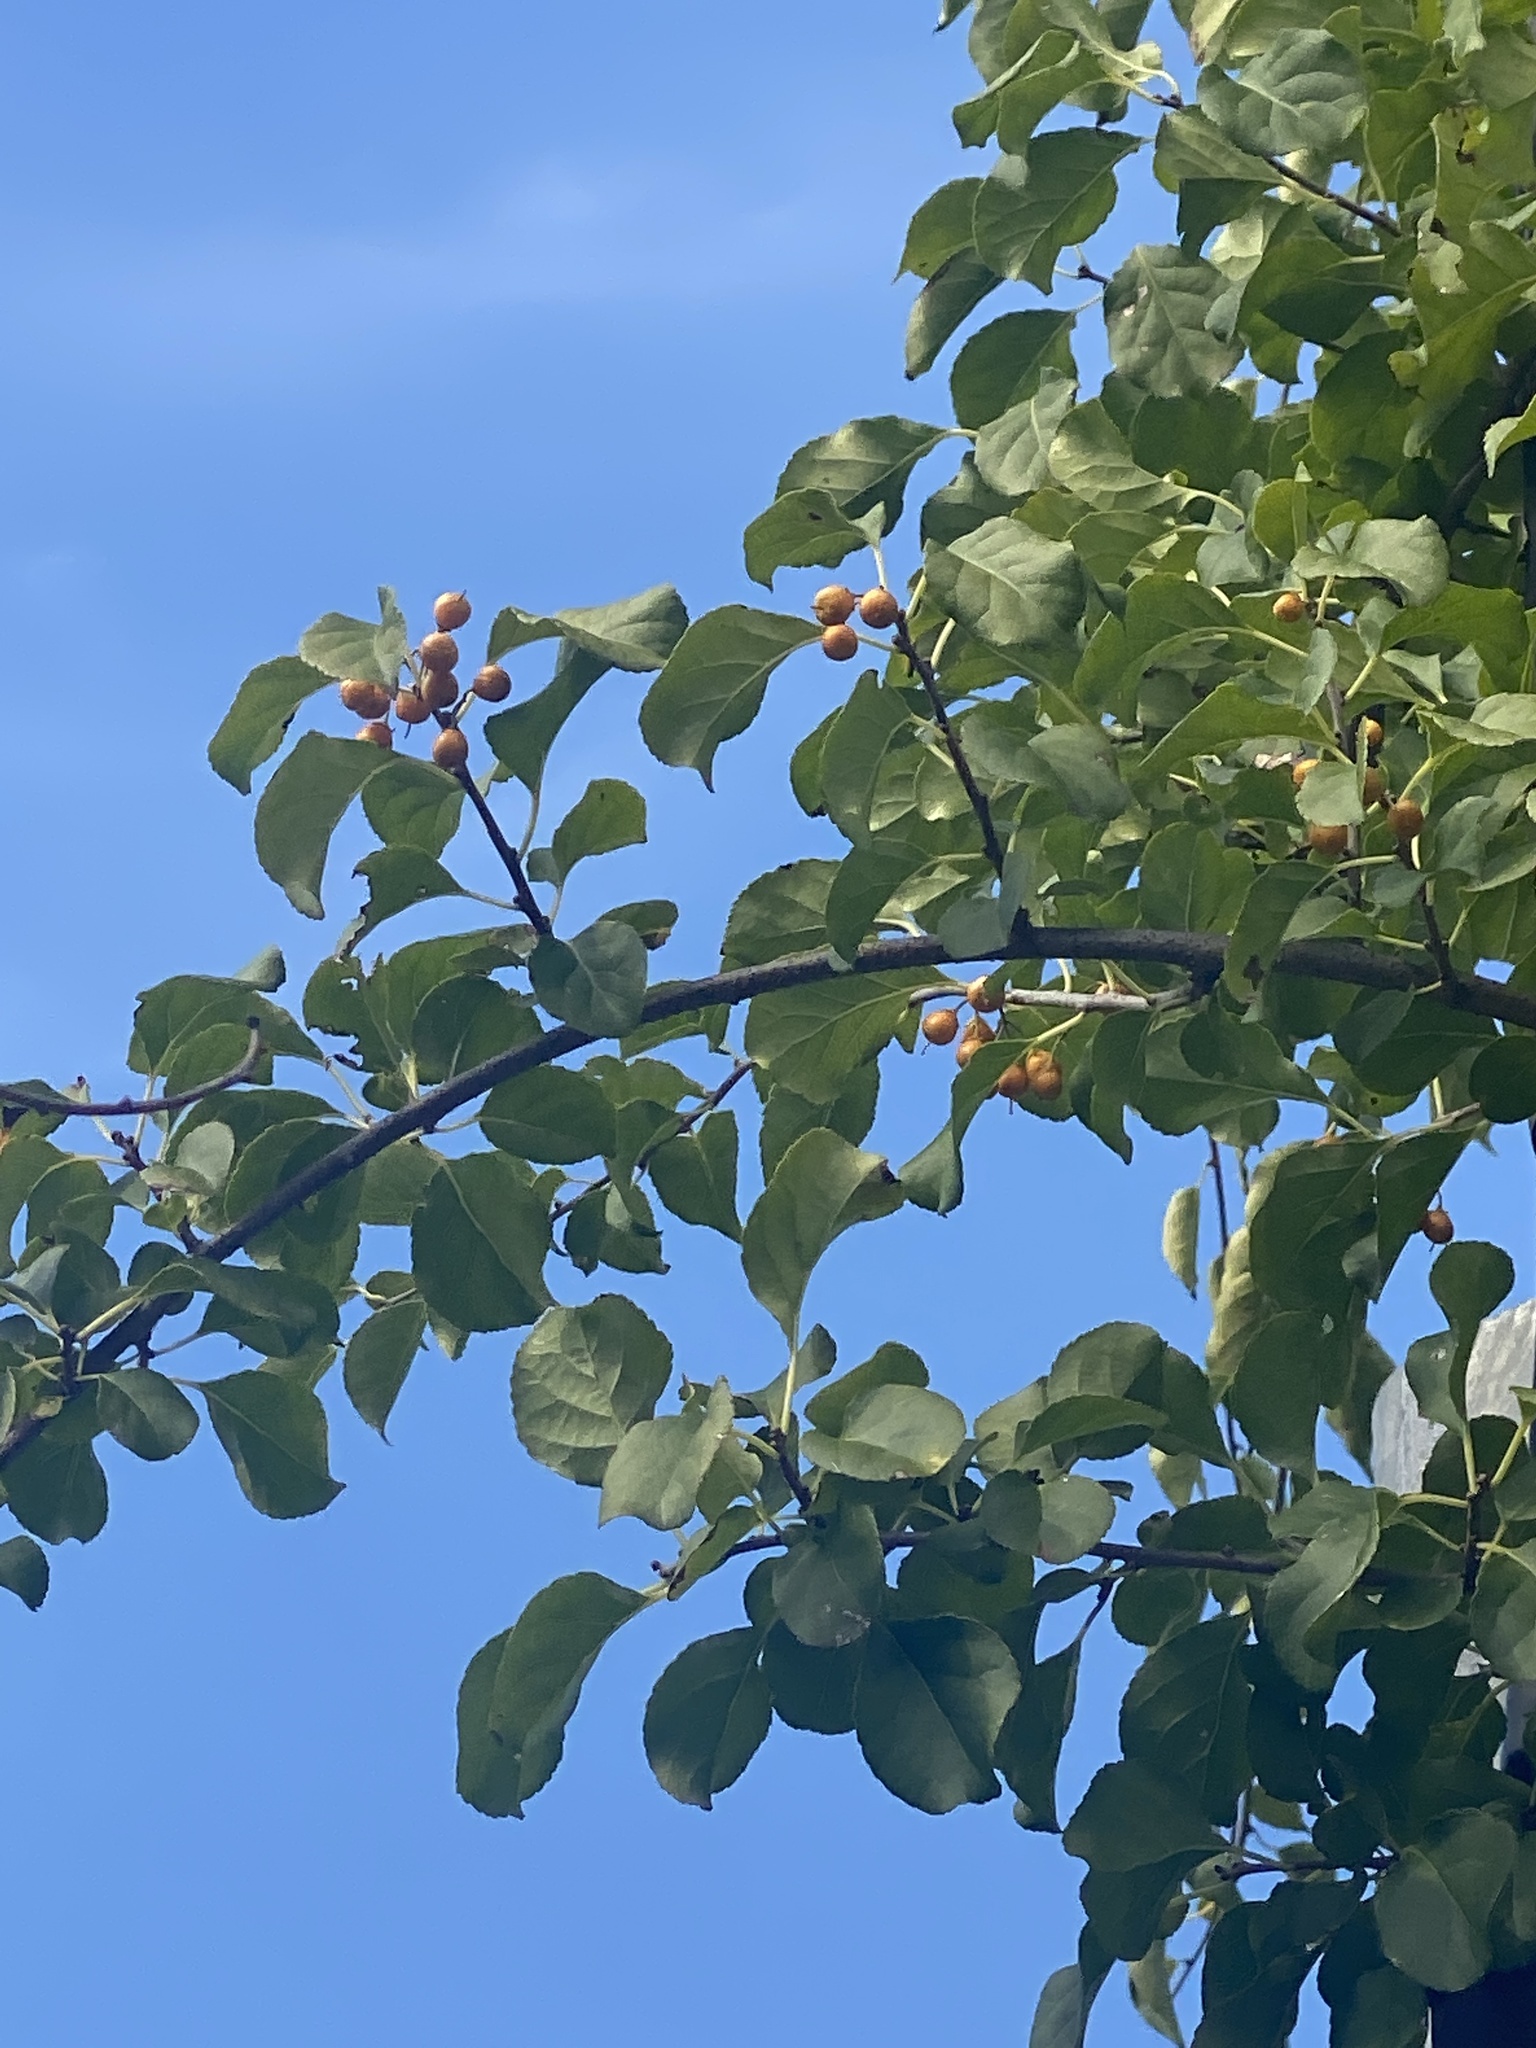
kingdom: Plantae
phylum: Tracheophyta
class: Magnoliopsida
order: Celastrales
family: Celastraceae
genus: Celastrus
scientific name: Celastrus orbiculatus
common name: Oriental bittersweet
